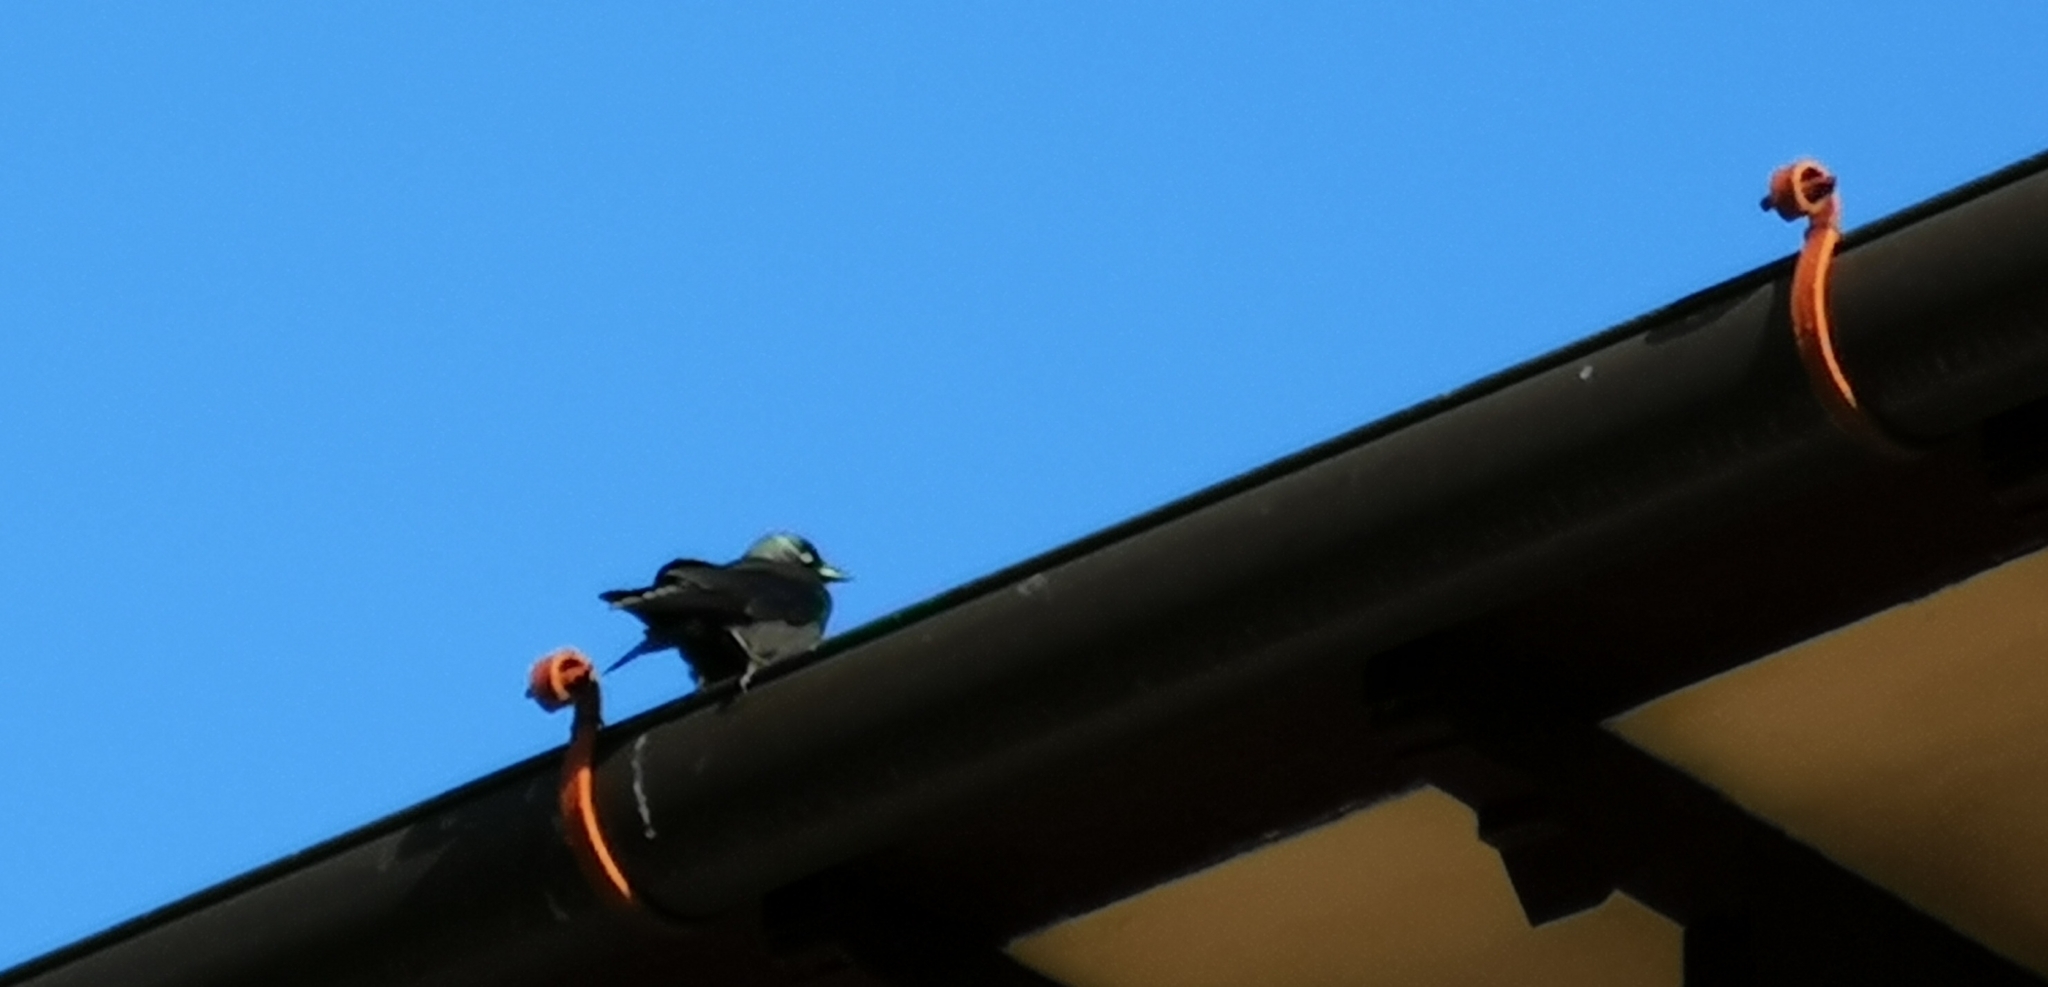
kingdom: Animalia
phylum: Chordata
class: Aves
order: Passeriformes
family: Corvidae
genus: Coloeus
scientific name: Coloeus monedula
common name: Western jackdaw
